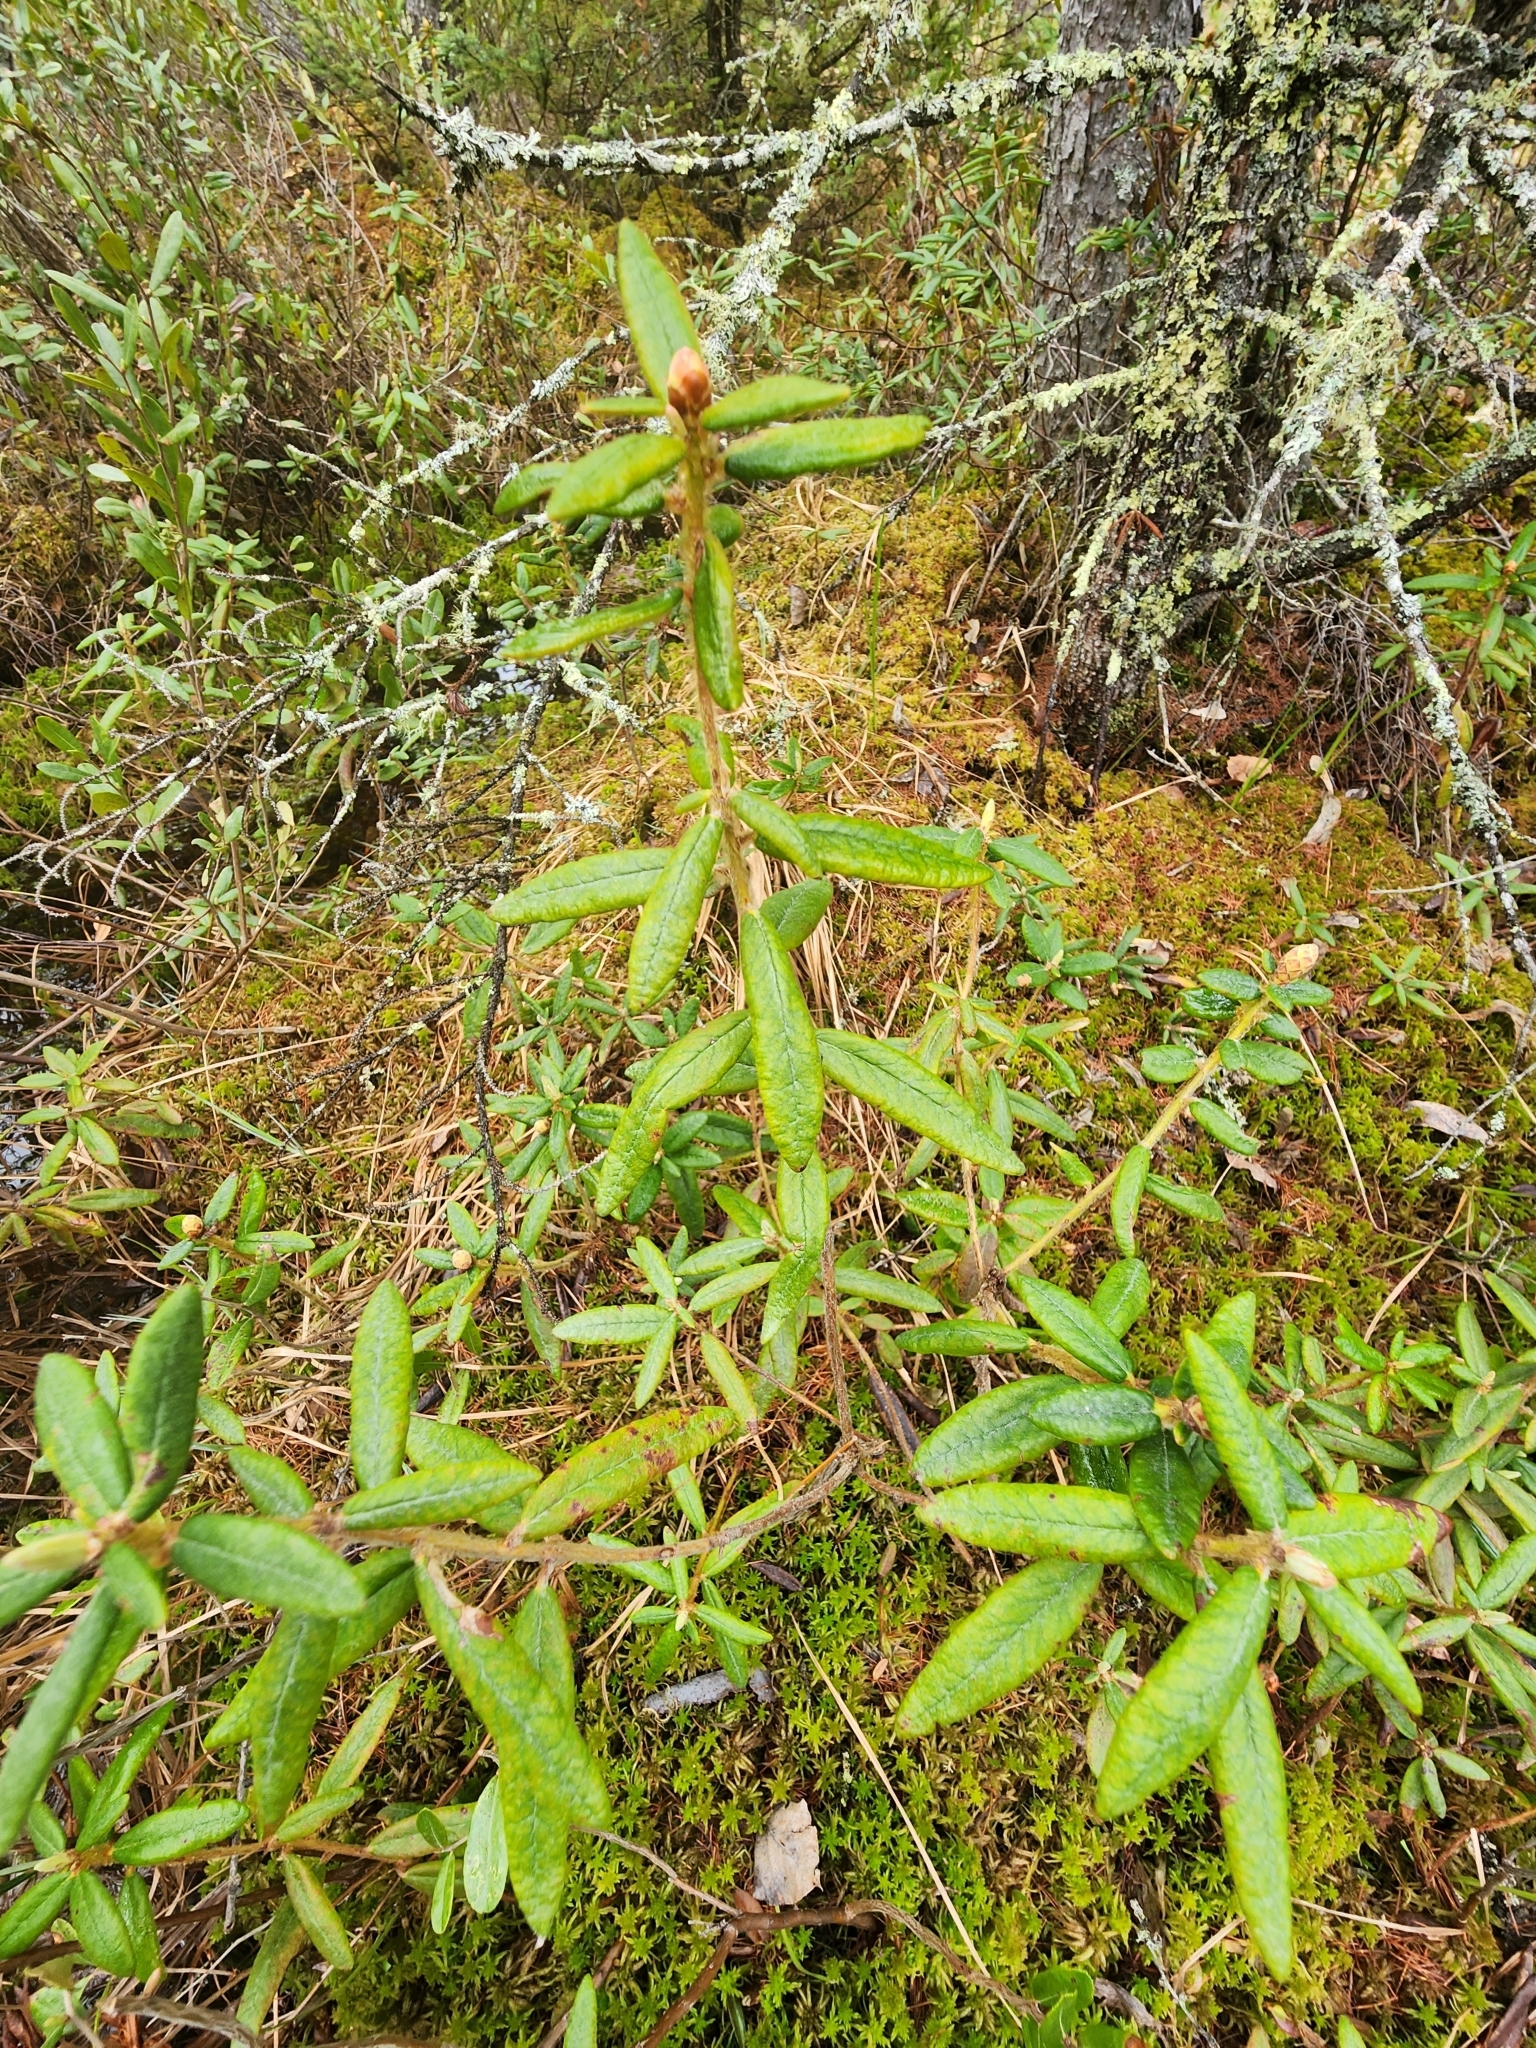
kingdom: Plantae
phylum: Tracheophyta
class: Magnoliopsida
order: Ericales
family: Ericaceae
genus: Rhododendron
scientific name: Rhododendron groenlandicum
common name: Bog labrador tea
